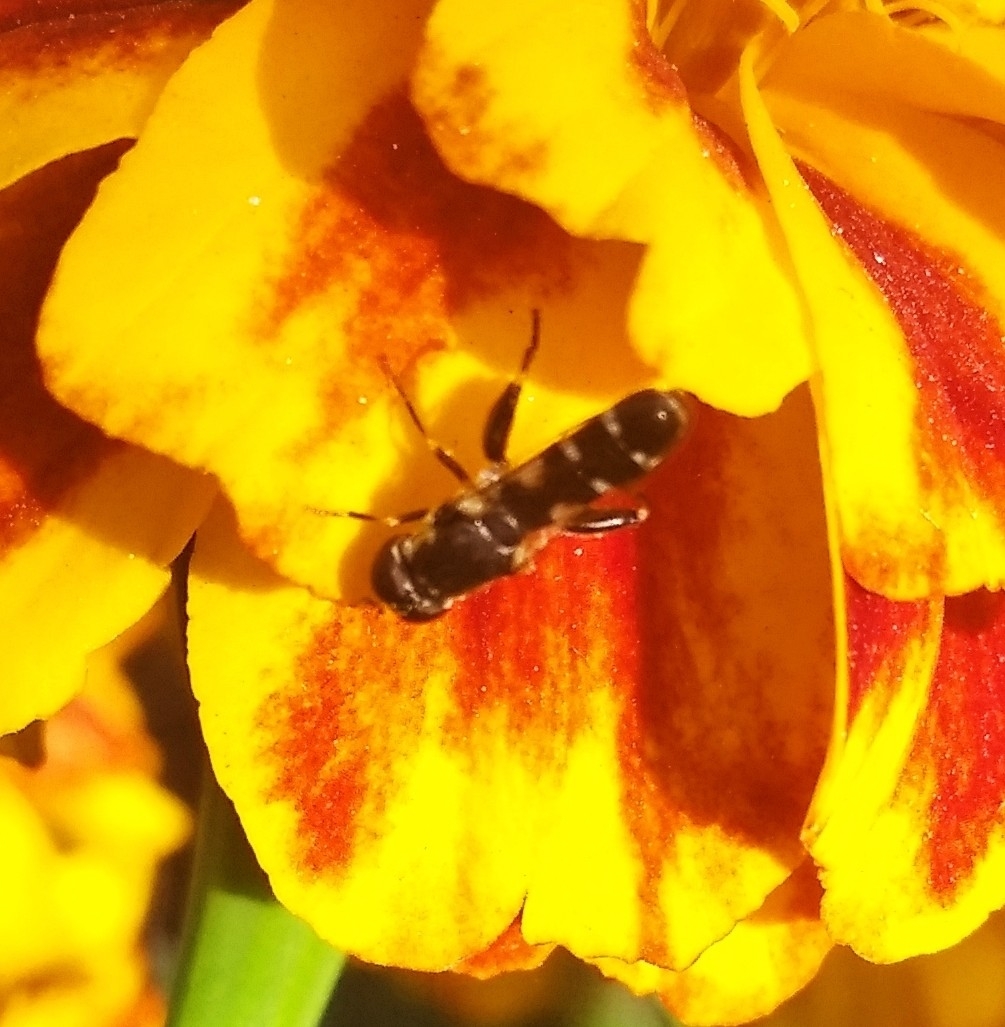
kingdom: Animalia
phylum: Arthropoda
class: Insecta
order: Diptera
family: Syrphidae
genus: Syritta
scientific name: Syritta pipiens
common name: Hover fly
